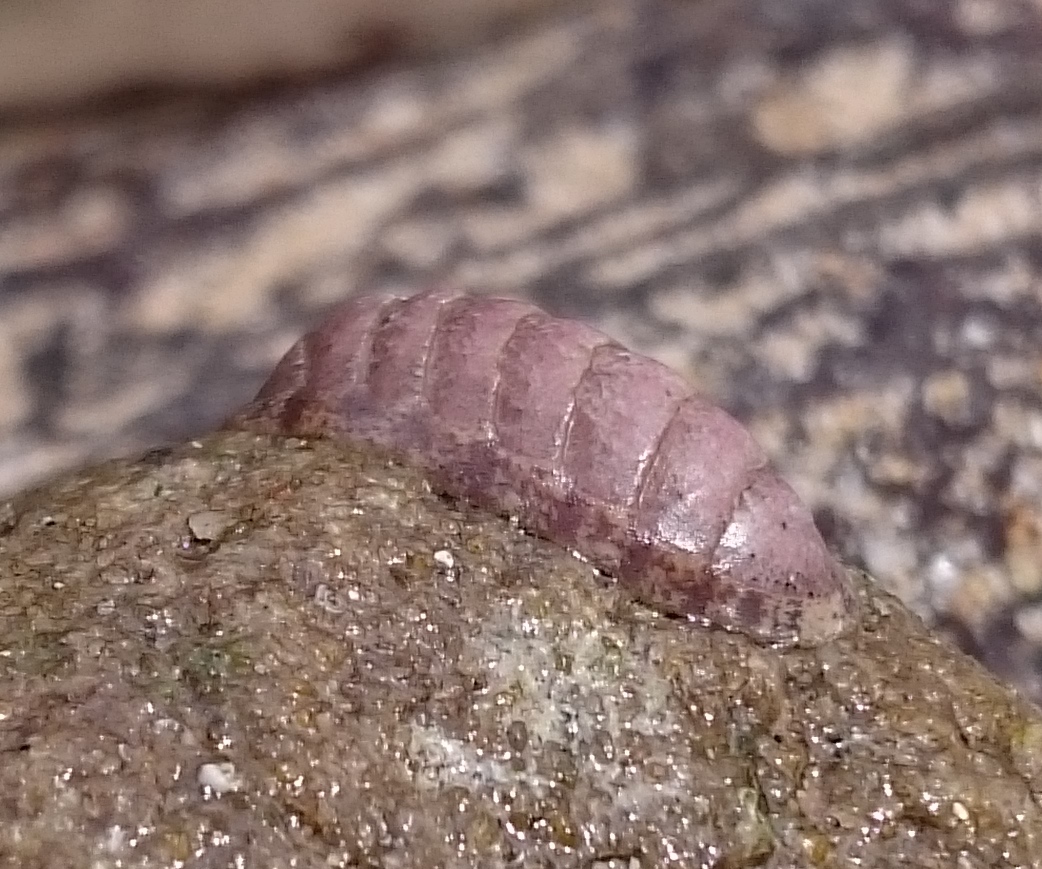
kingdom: Animalia
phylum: Mollusca
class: Polyplacophora
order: Chitonida
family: Ischnochitonidae
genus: Ischnochiton
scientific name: Ischnochiton oniscus
